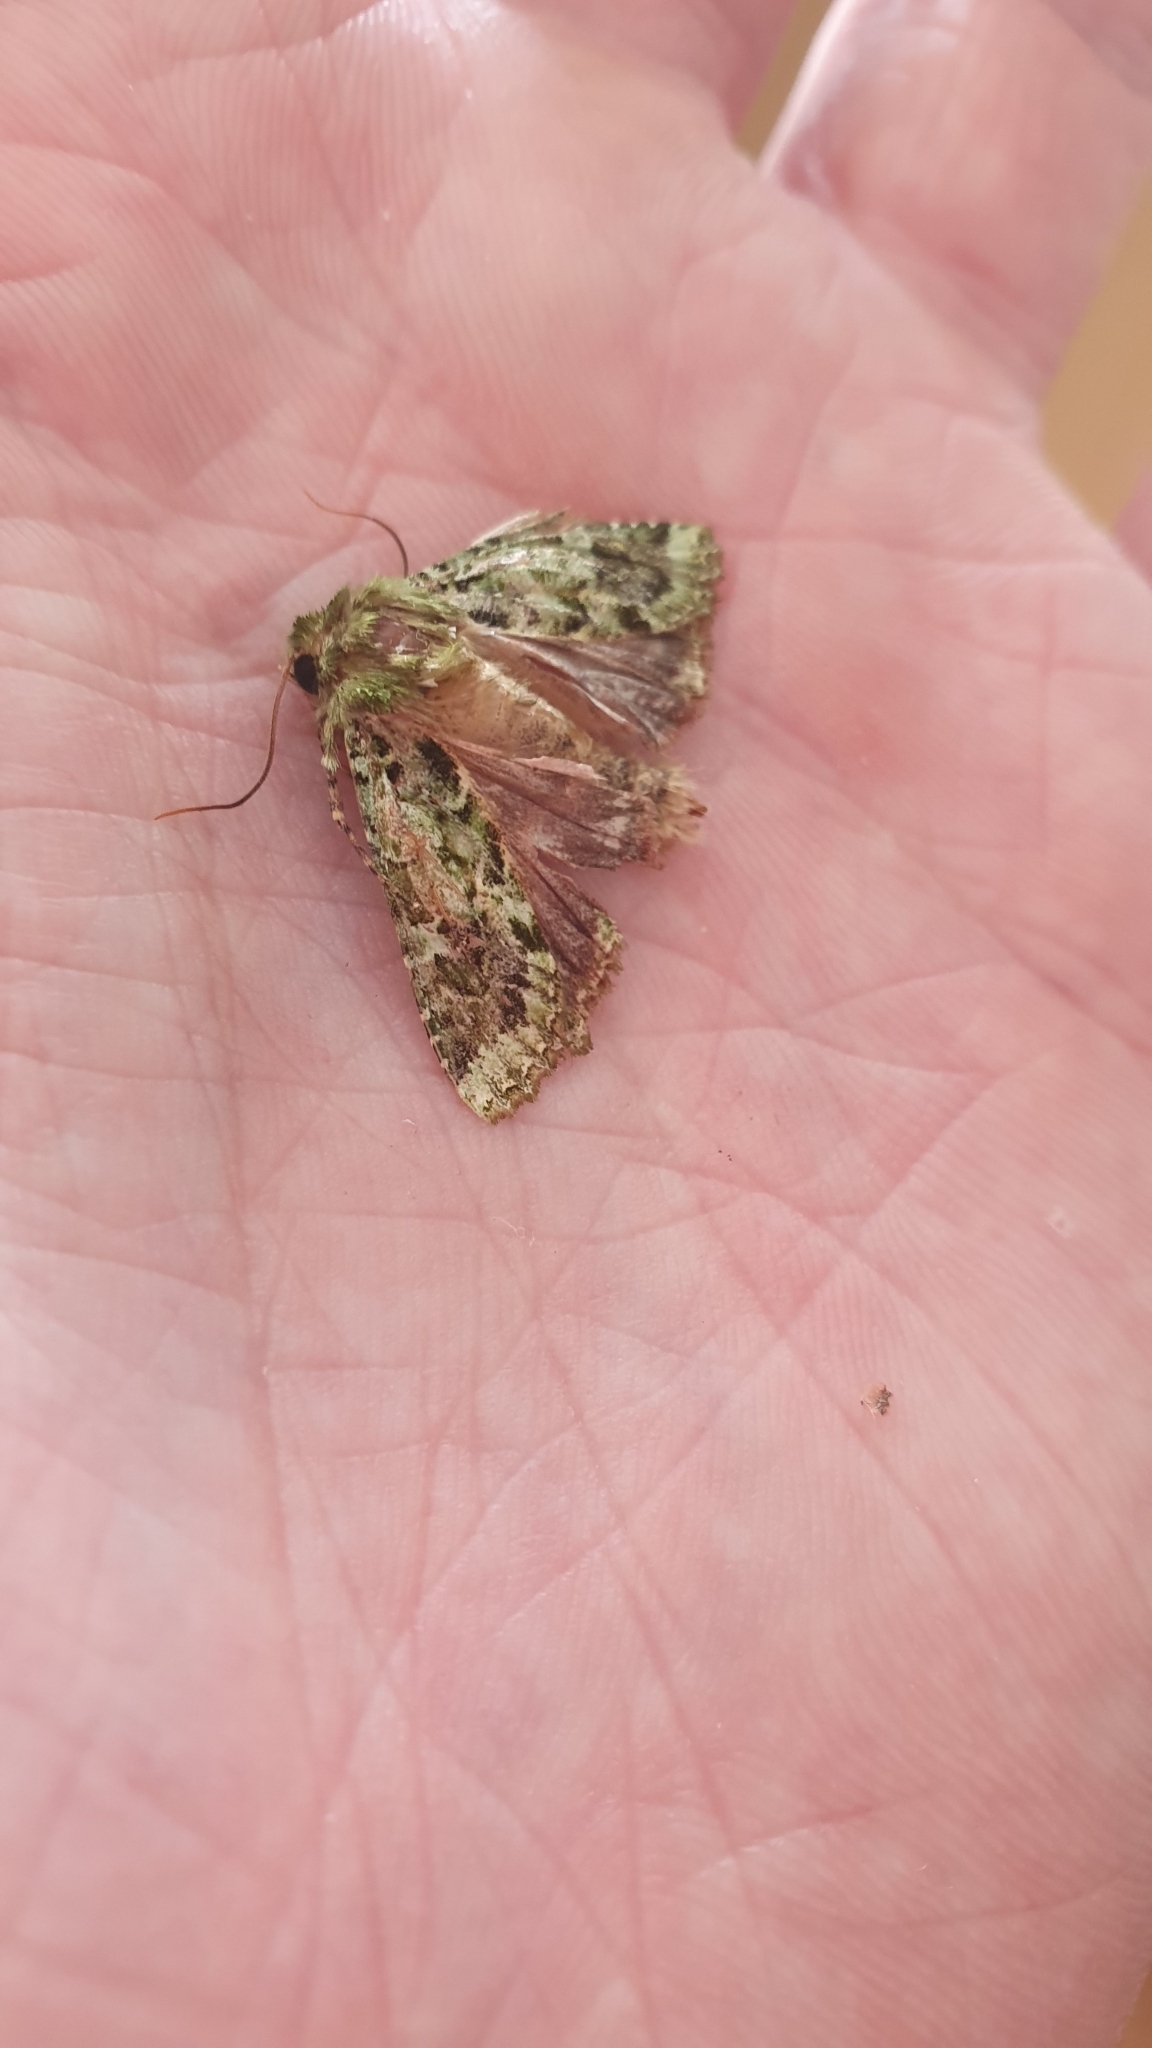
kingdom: Animalia
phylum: Arthropoda
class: Insecta
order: Lepidoptera
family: Noctuidae
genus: Feredayia
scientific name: Feredayia grammosa
